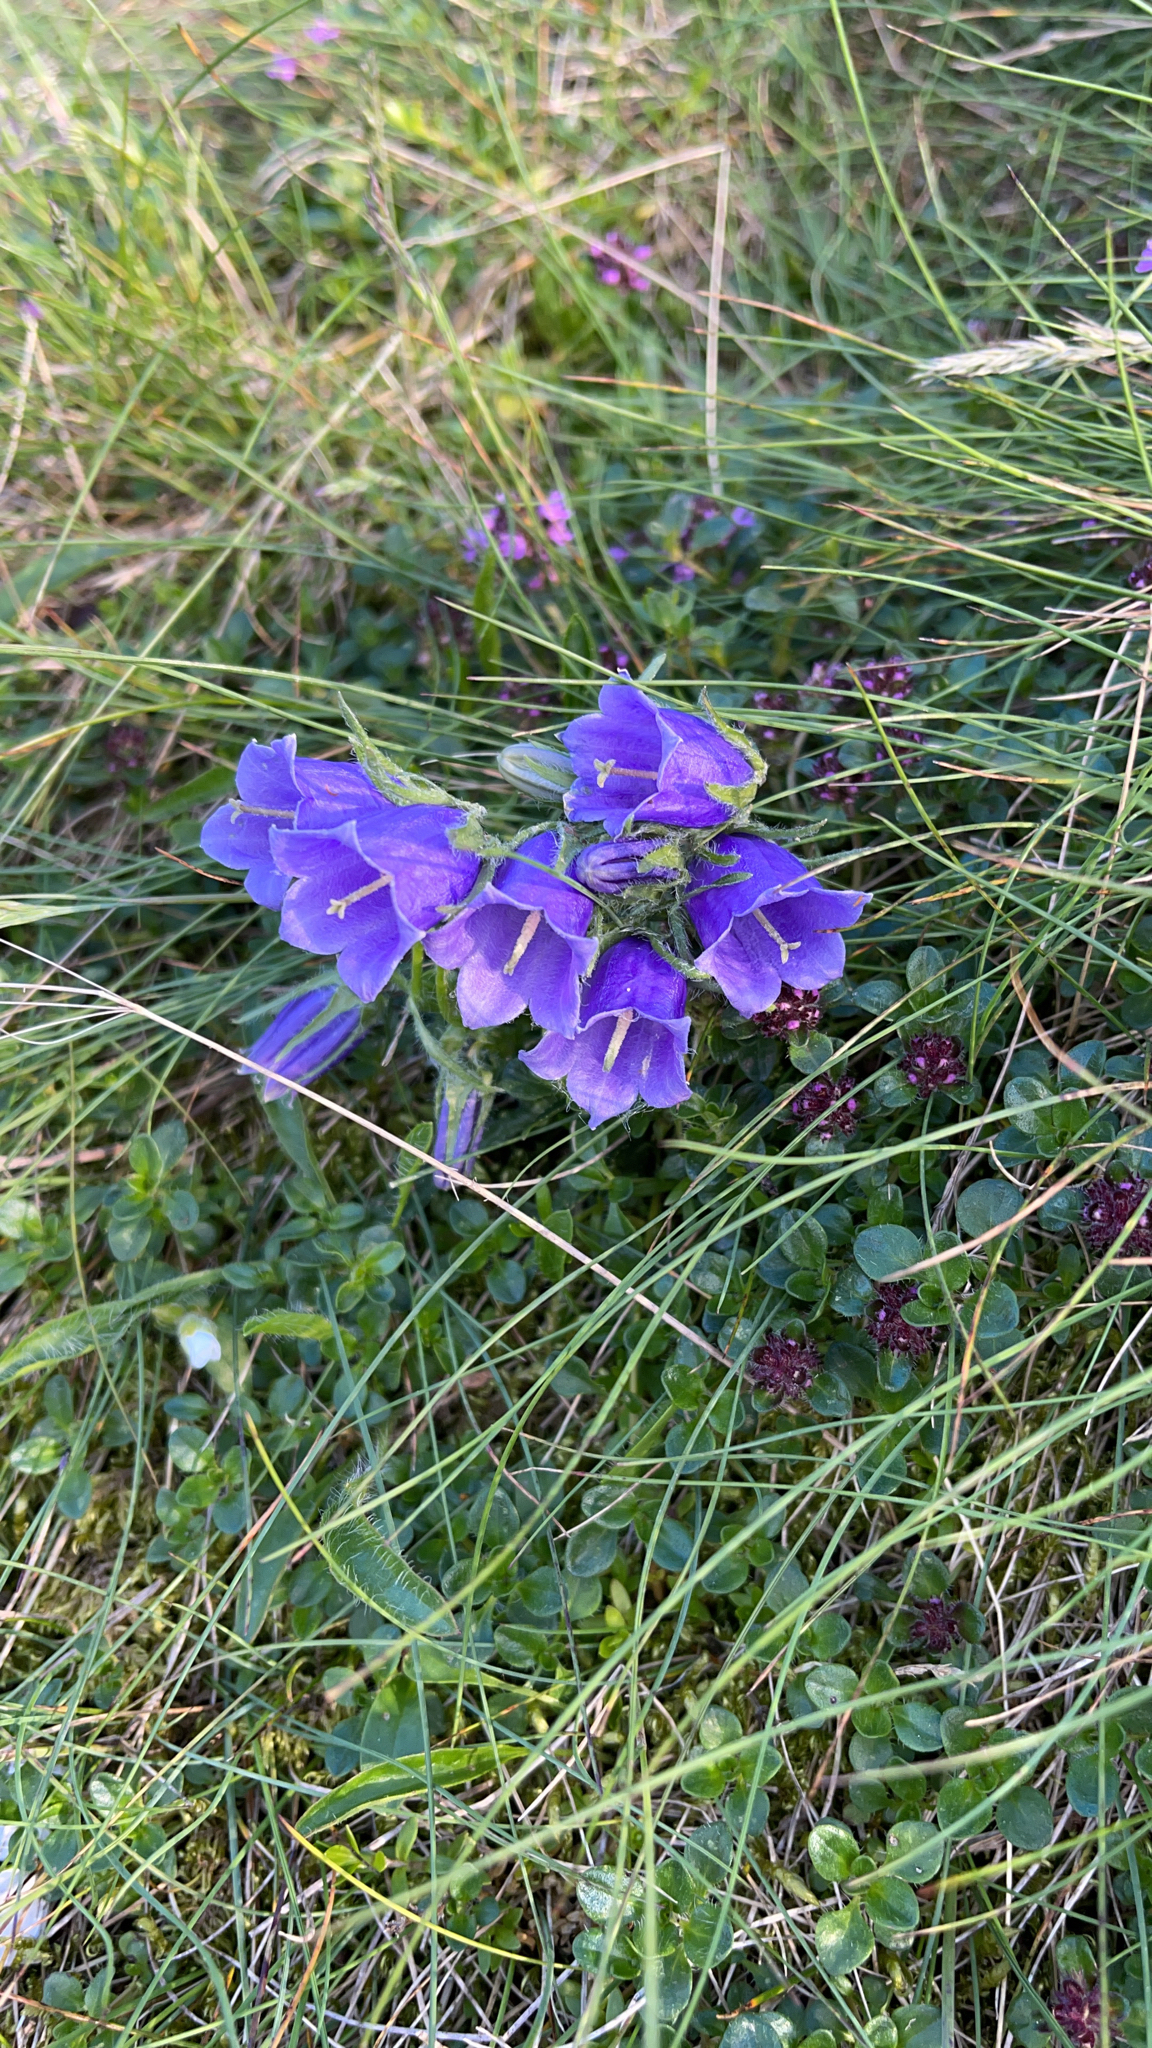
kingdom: Plantae
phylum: Tracheophyta
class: Magnoliopsida
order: Asterales
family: Campanulaceae
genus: Campanula
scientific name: Campanula alpina
